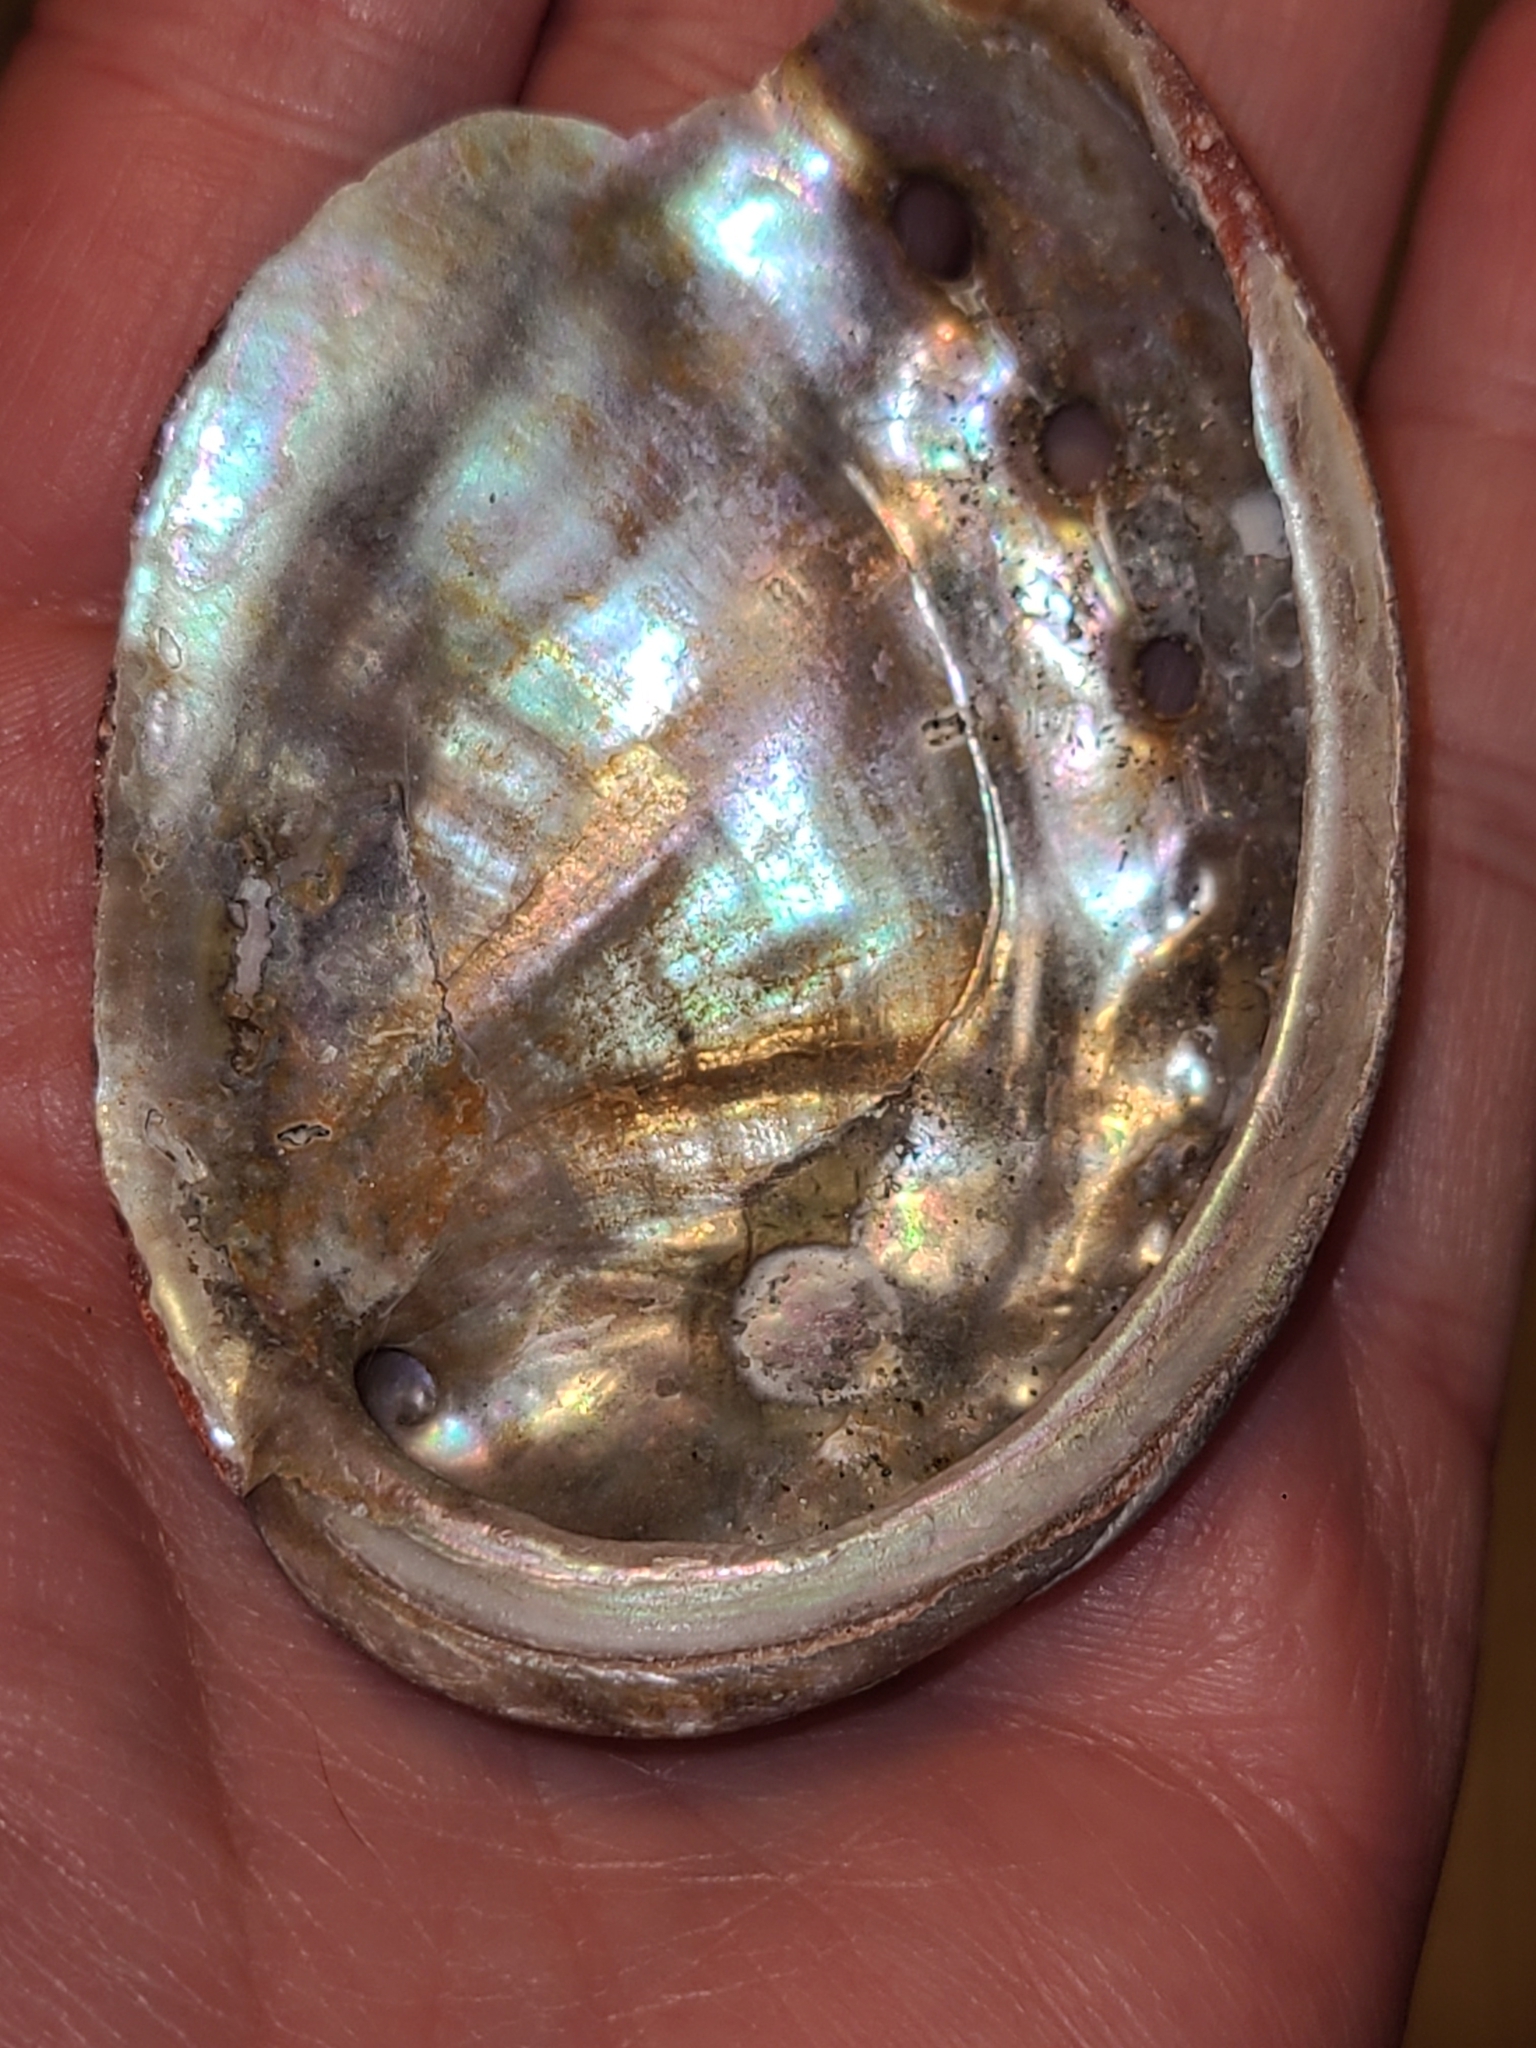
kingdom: Animalia
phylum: Mollusca
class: Gastropoda
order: Lepetellida
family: Haliotidae
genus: Haliotis
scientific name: Haliotis rufescens
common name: Red abalone
